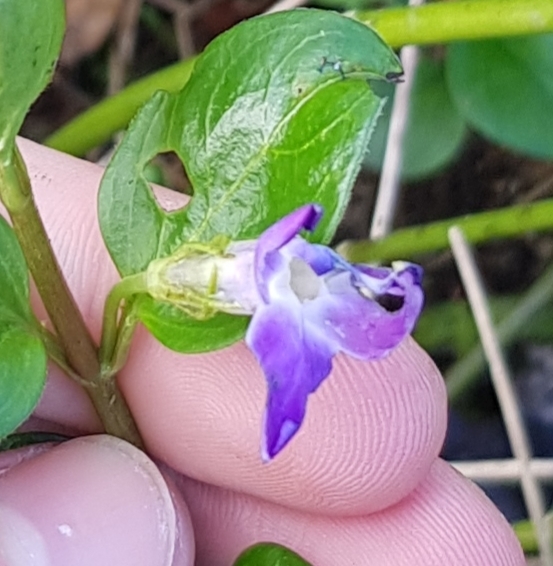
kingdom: Plantae
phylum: Tracheophyta
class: Magnoliopsida
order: Gentianales
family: Apocynaceae
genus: Vinca
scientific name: Vinca major
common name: Greater periwinkle
